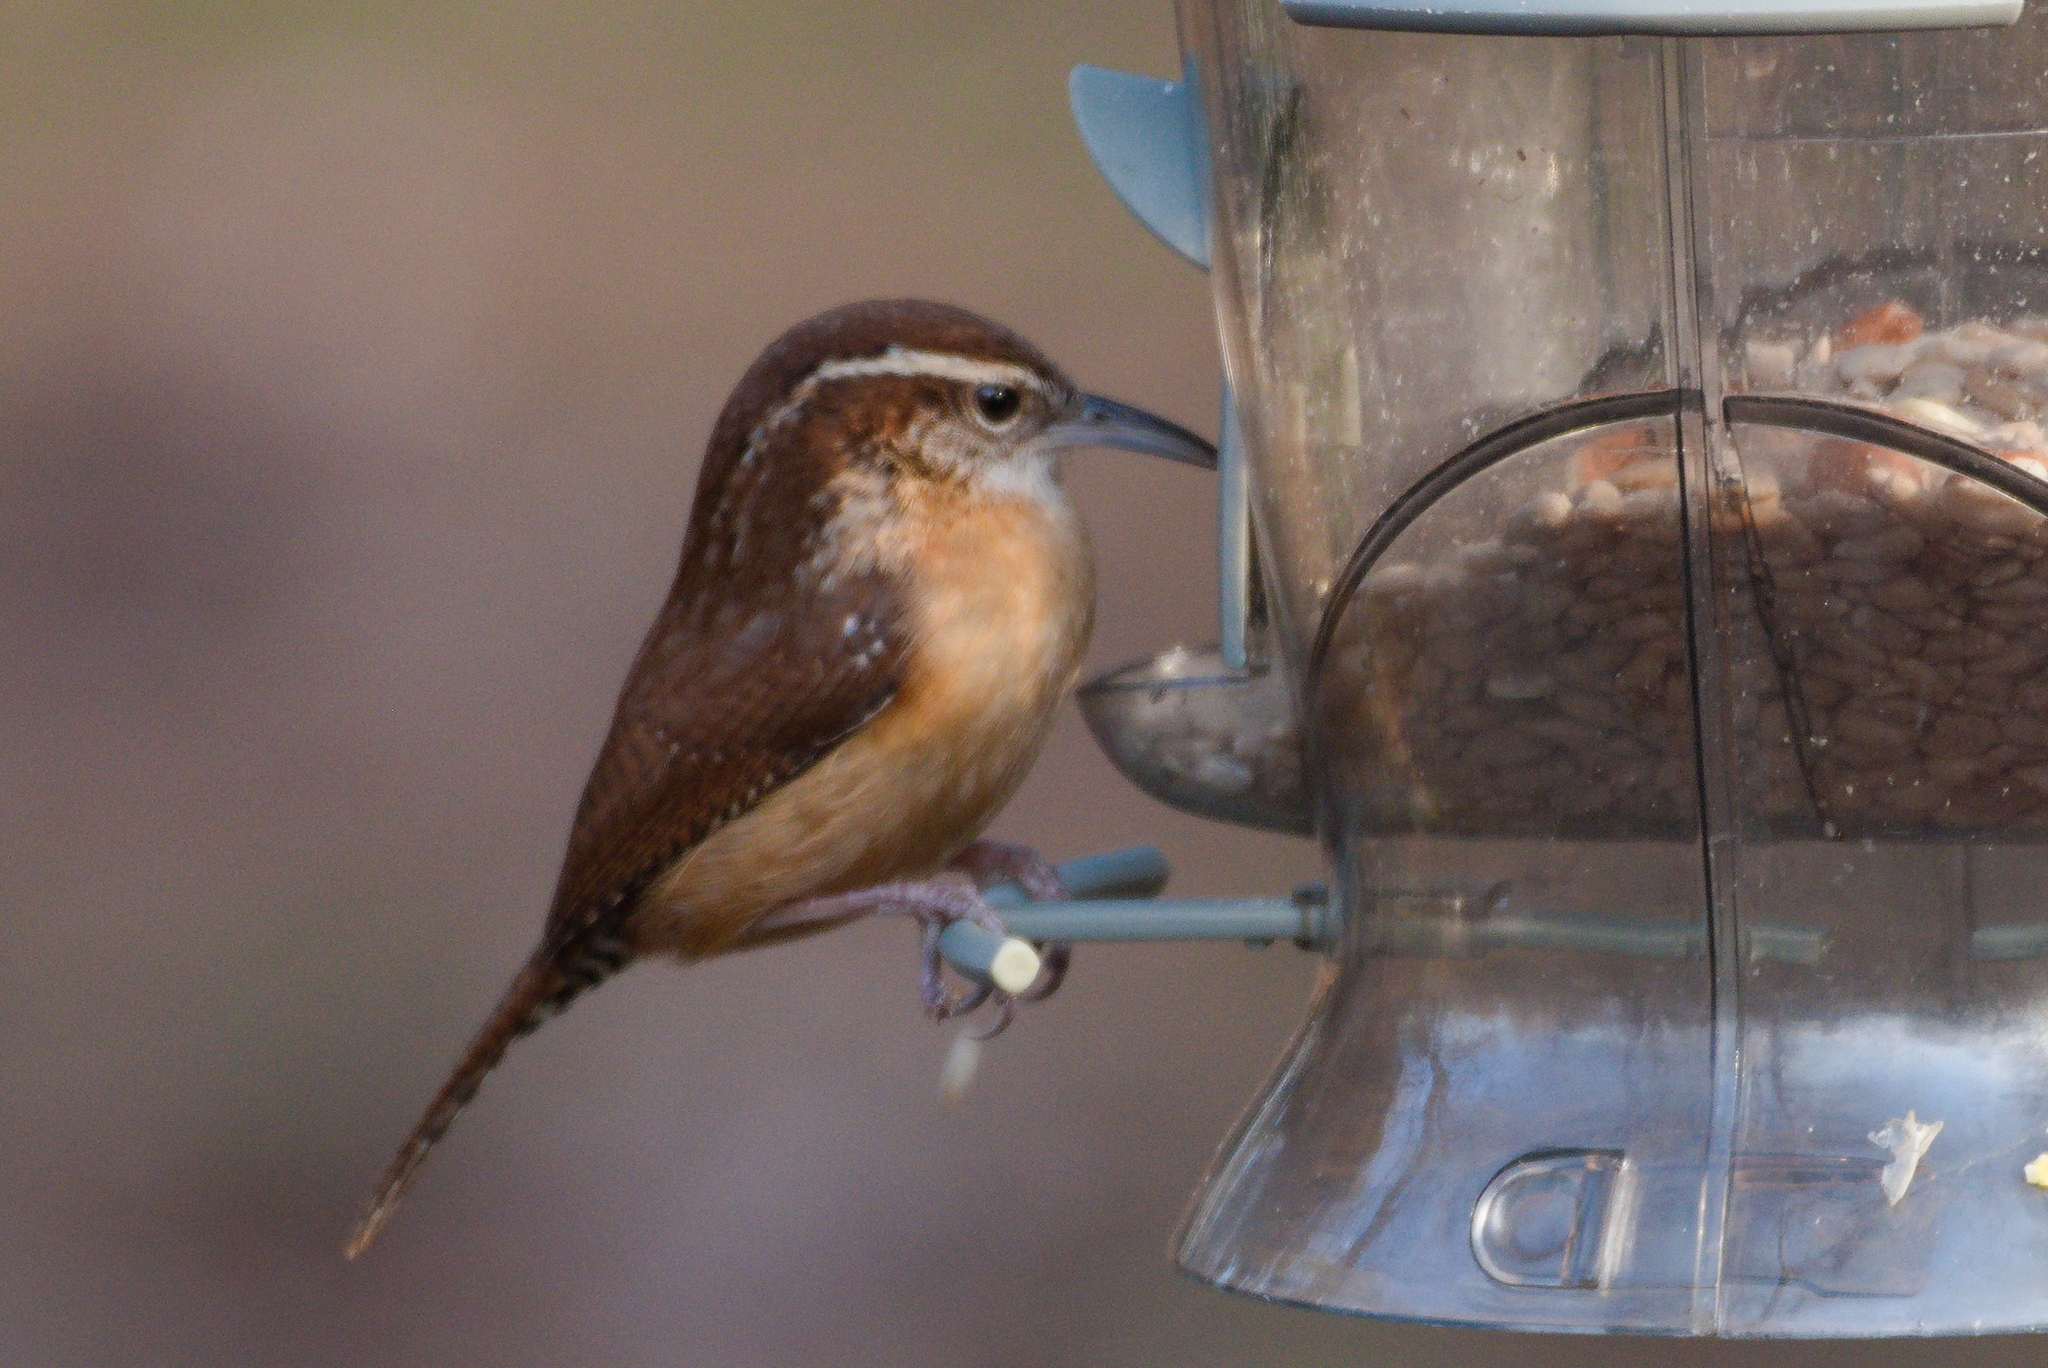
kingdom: Animalia
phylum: Chordata
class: Aves
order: Passeriformes
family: Troglodytidae
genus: Thryothorus
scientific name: Thryothorus ludovicianus
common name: Carolina wren
